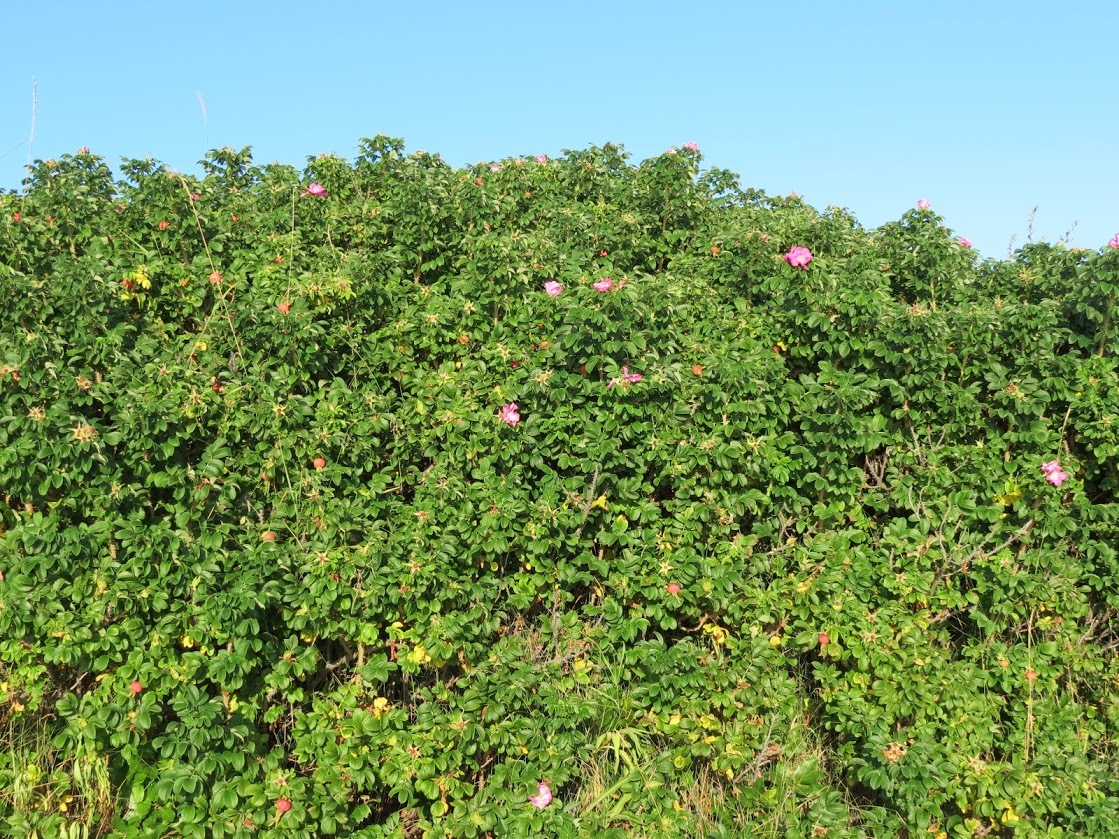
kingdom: Plantae
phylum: Tracheophyta
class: Magnoliopsida
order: Rosales
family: Rosaceae
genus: Rosa
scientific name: Rosa rugosa
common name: Japanese rose
